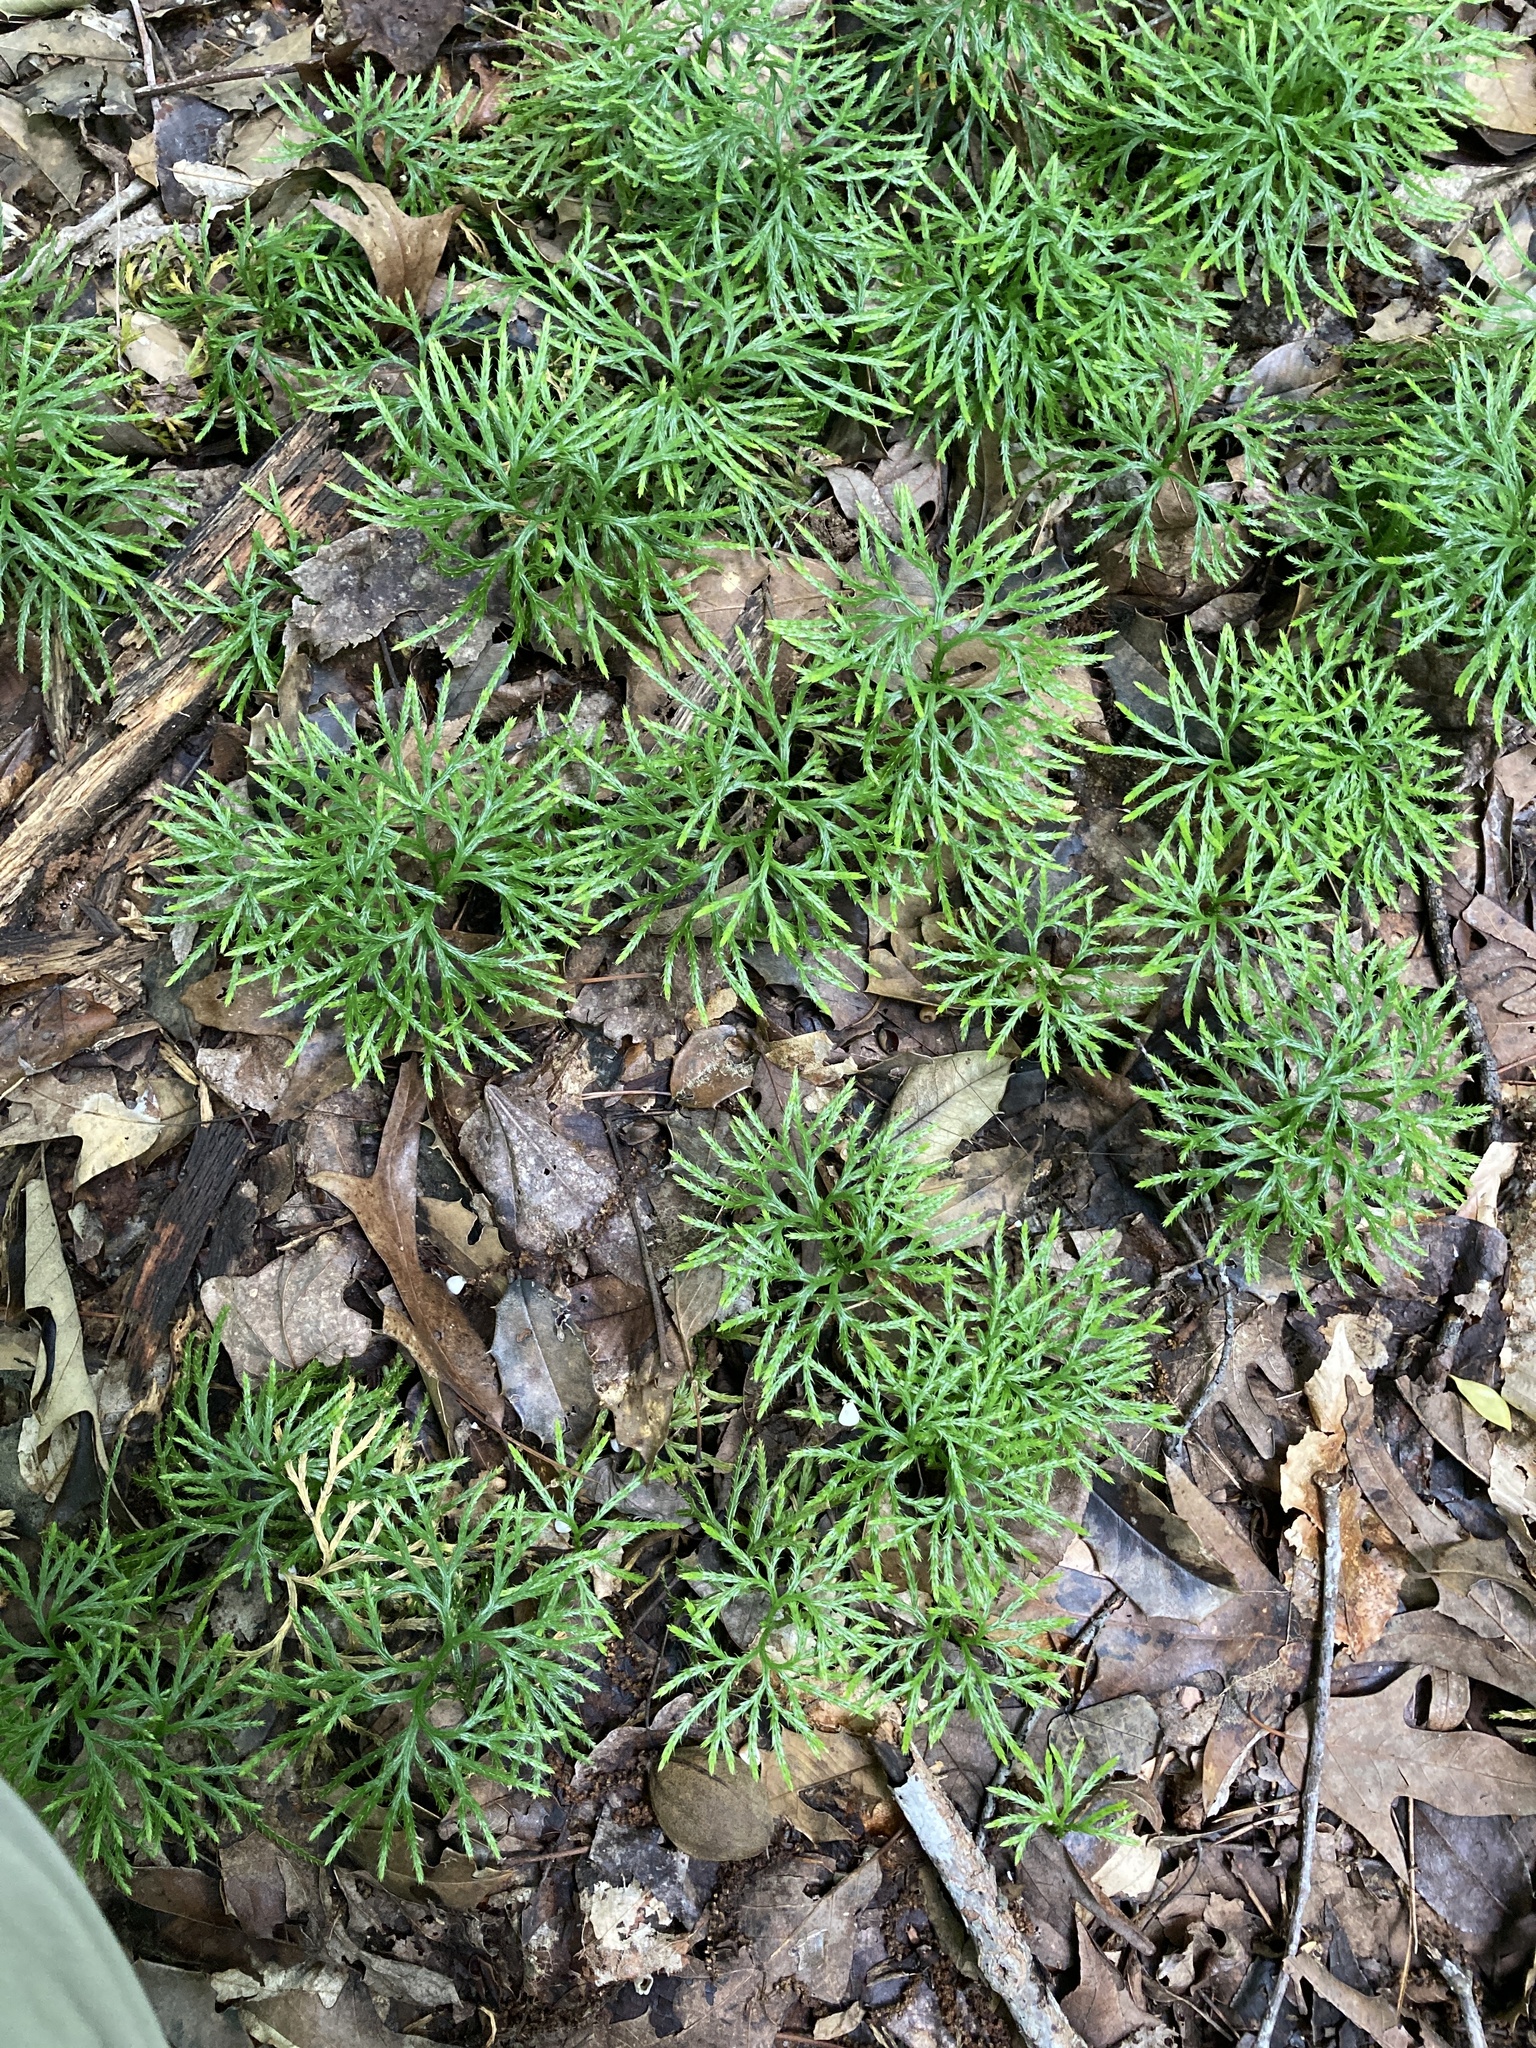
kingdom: Plantae
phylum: Tracheophyta
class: Lycopodiopsida
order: Lycopodiales
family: Lycopodiaceae
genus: Diphasiastrum
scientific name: Diphasiastrum digitatum
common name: Southern running-pine
